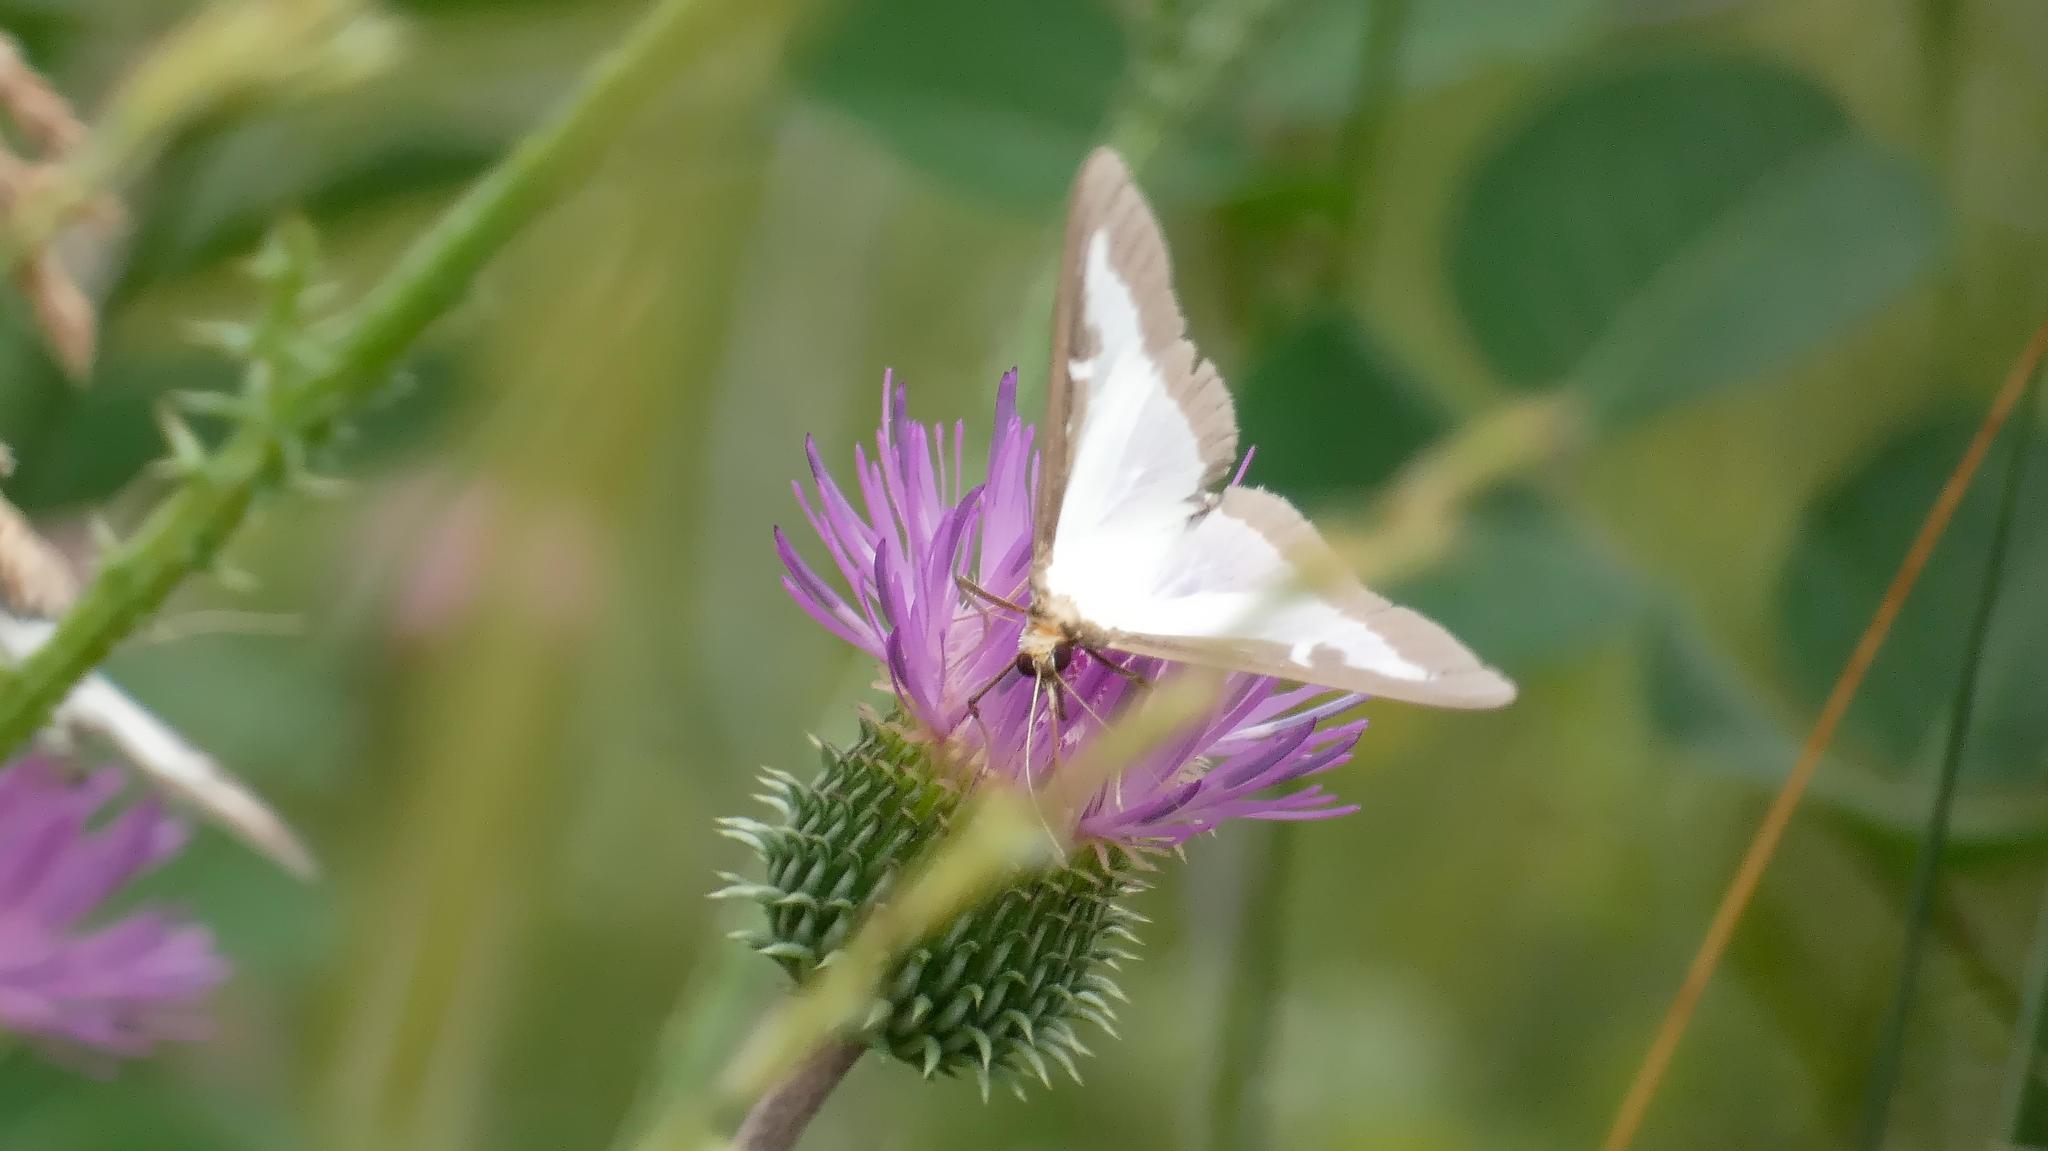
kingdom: Animalia
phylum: Arthropoda
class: Insecta
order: Lepidoptera
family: Crambidae
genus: Cydalima
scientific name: Cydalima perspectalis
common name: Box tree moth
